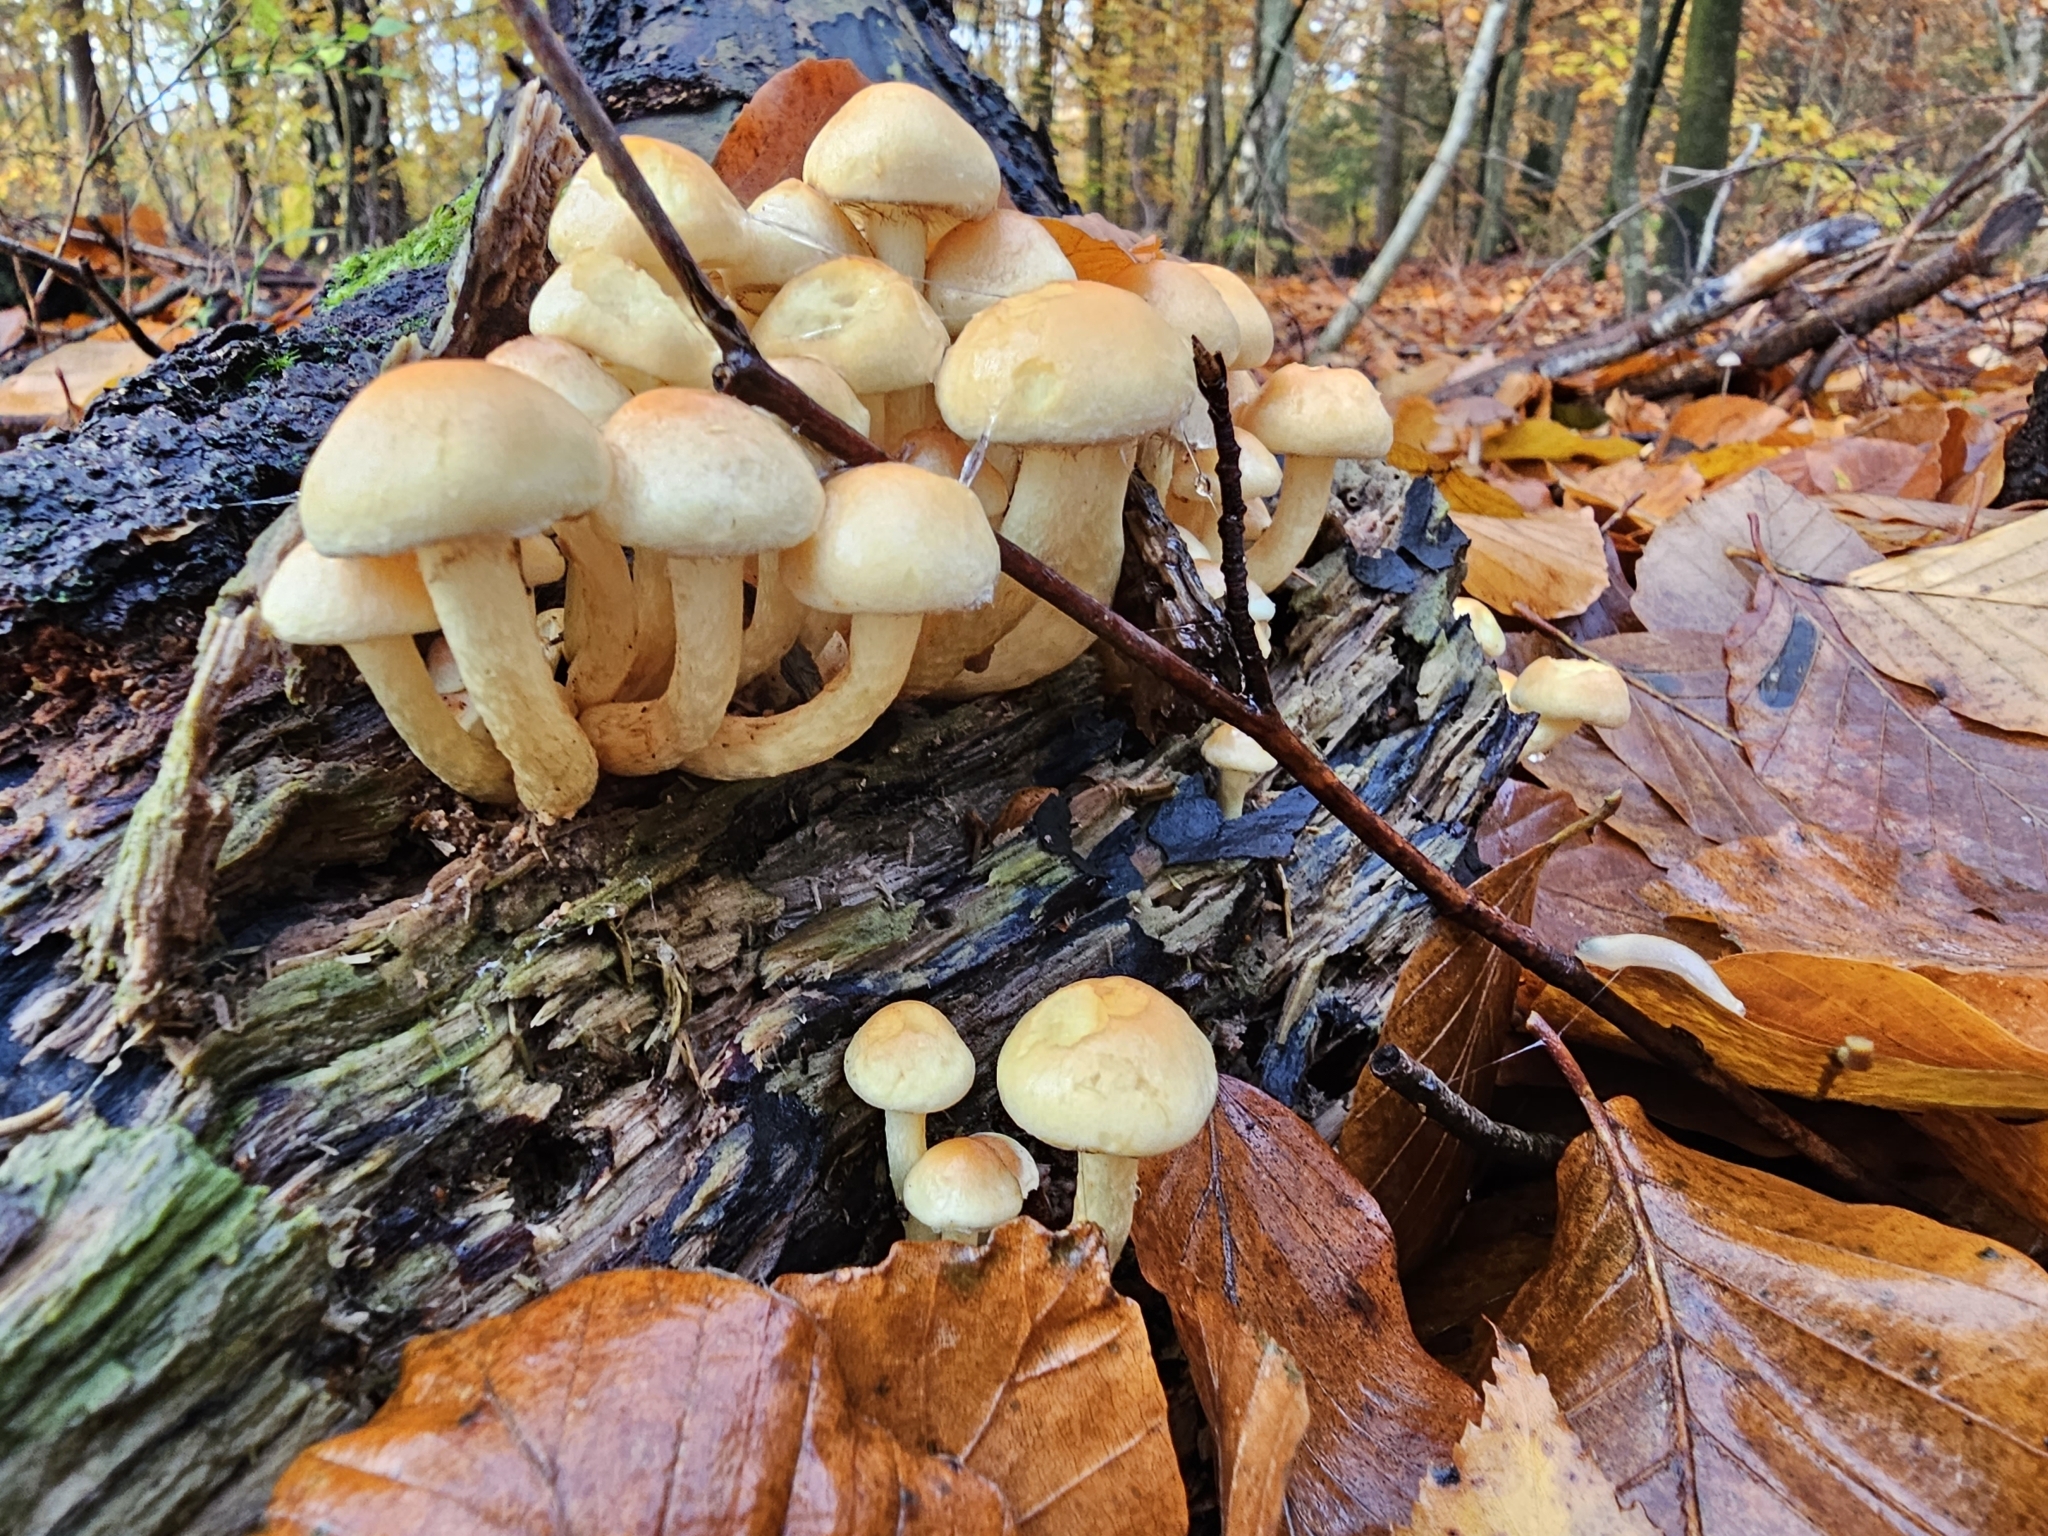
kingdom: Fungi
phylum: Basidiomycota
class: Agaricomycetes
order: Agaricales
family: Strophariaceae
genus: Hypholoma
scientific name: Hypholoma fasciculare
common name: Sulphur tuft
